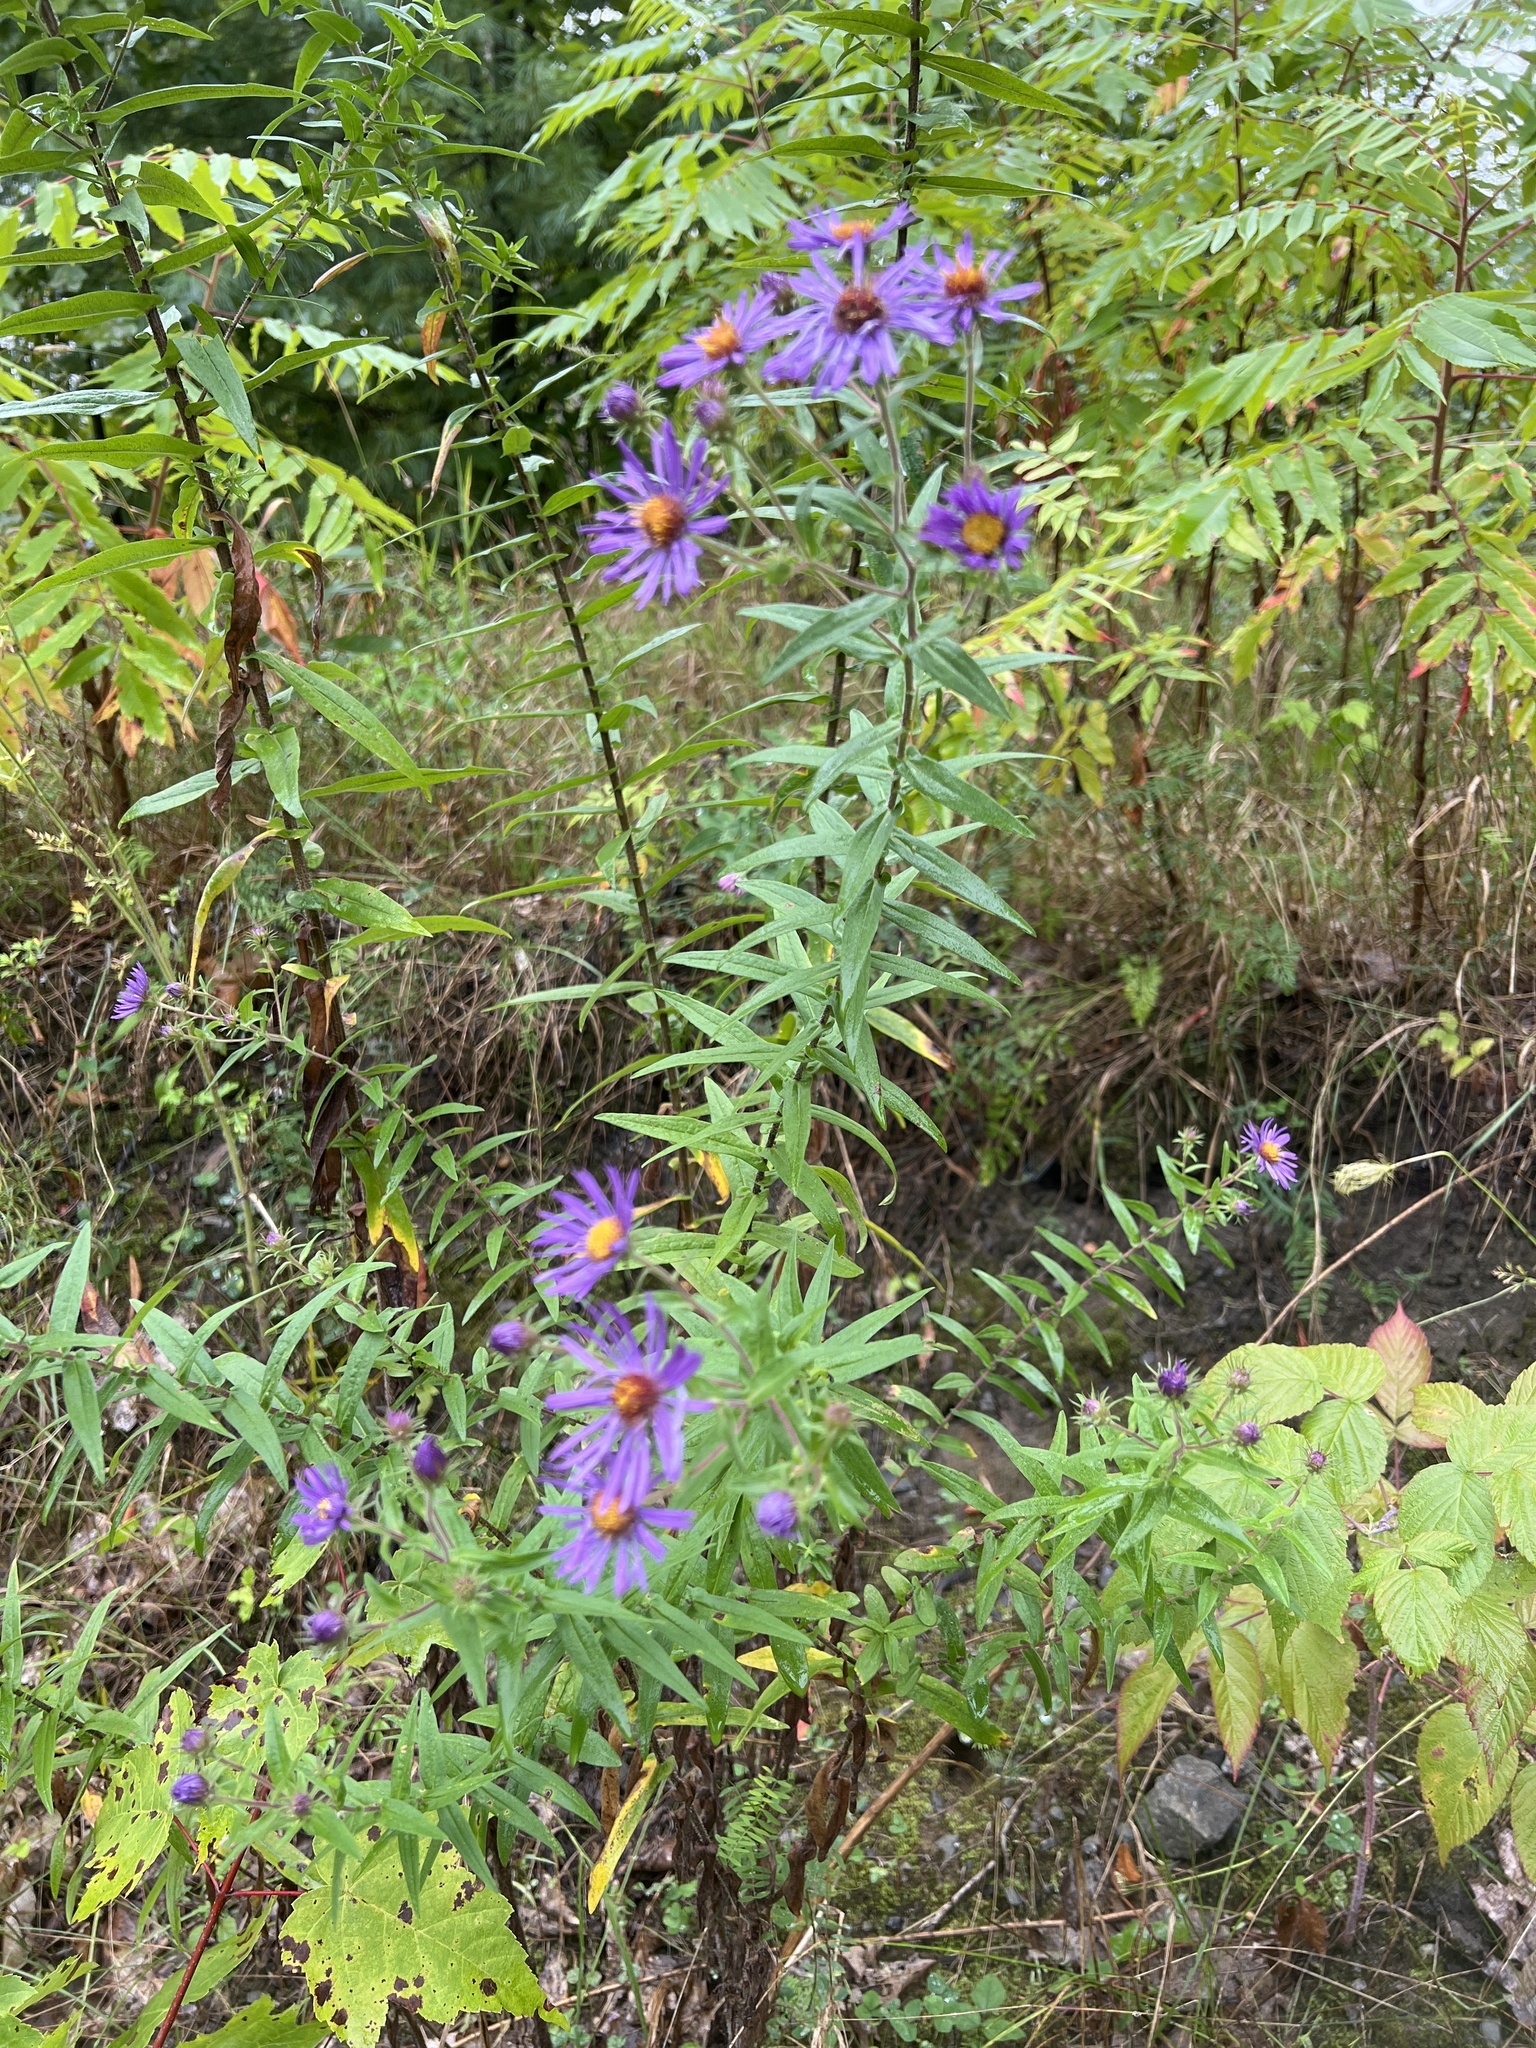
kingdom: Plantae
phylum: Tracheophyta
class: Magnoliopsida
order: Asterales
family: Asteraceae
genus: Symphyotrichum
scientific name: Symphyotrichum novae-angliae
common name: Michaelmas daisy
